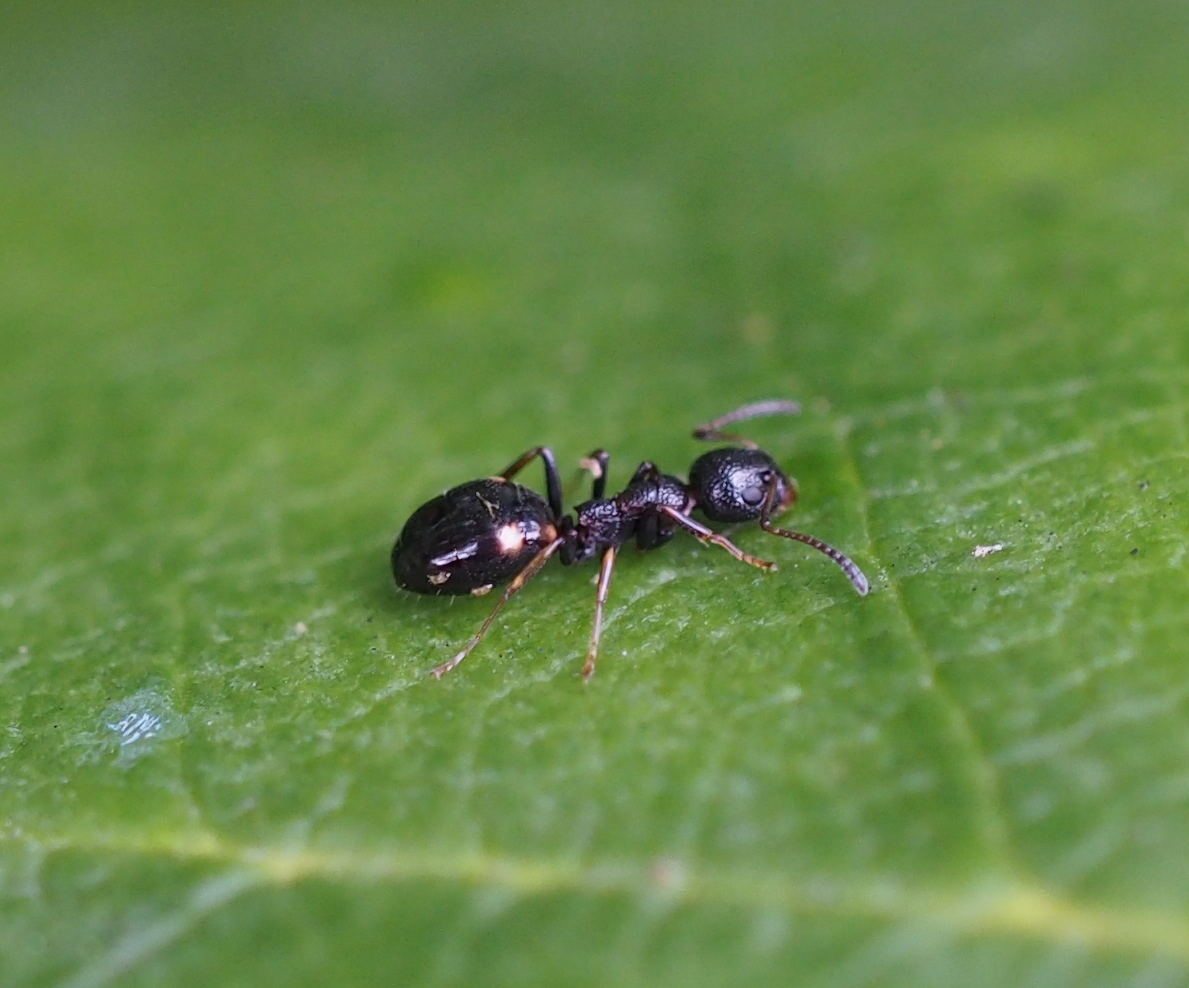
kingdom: Animalia
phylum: Arthropoda
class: Insecta
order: Hymenoptera
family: Formicidae
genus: Dolichoderus
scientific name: Dolichoderus quadripunctatus
